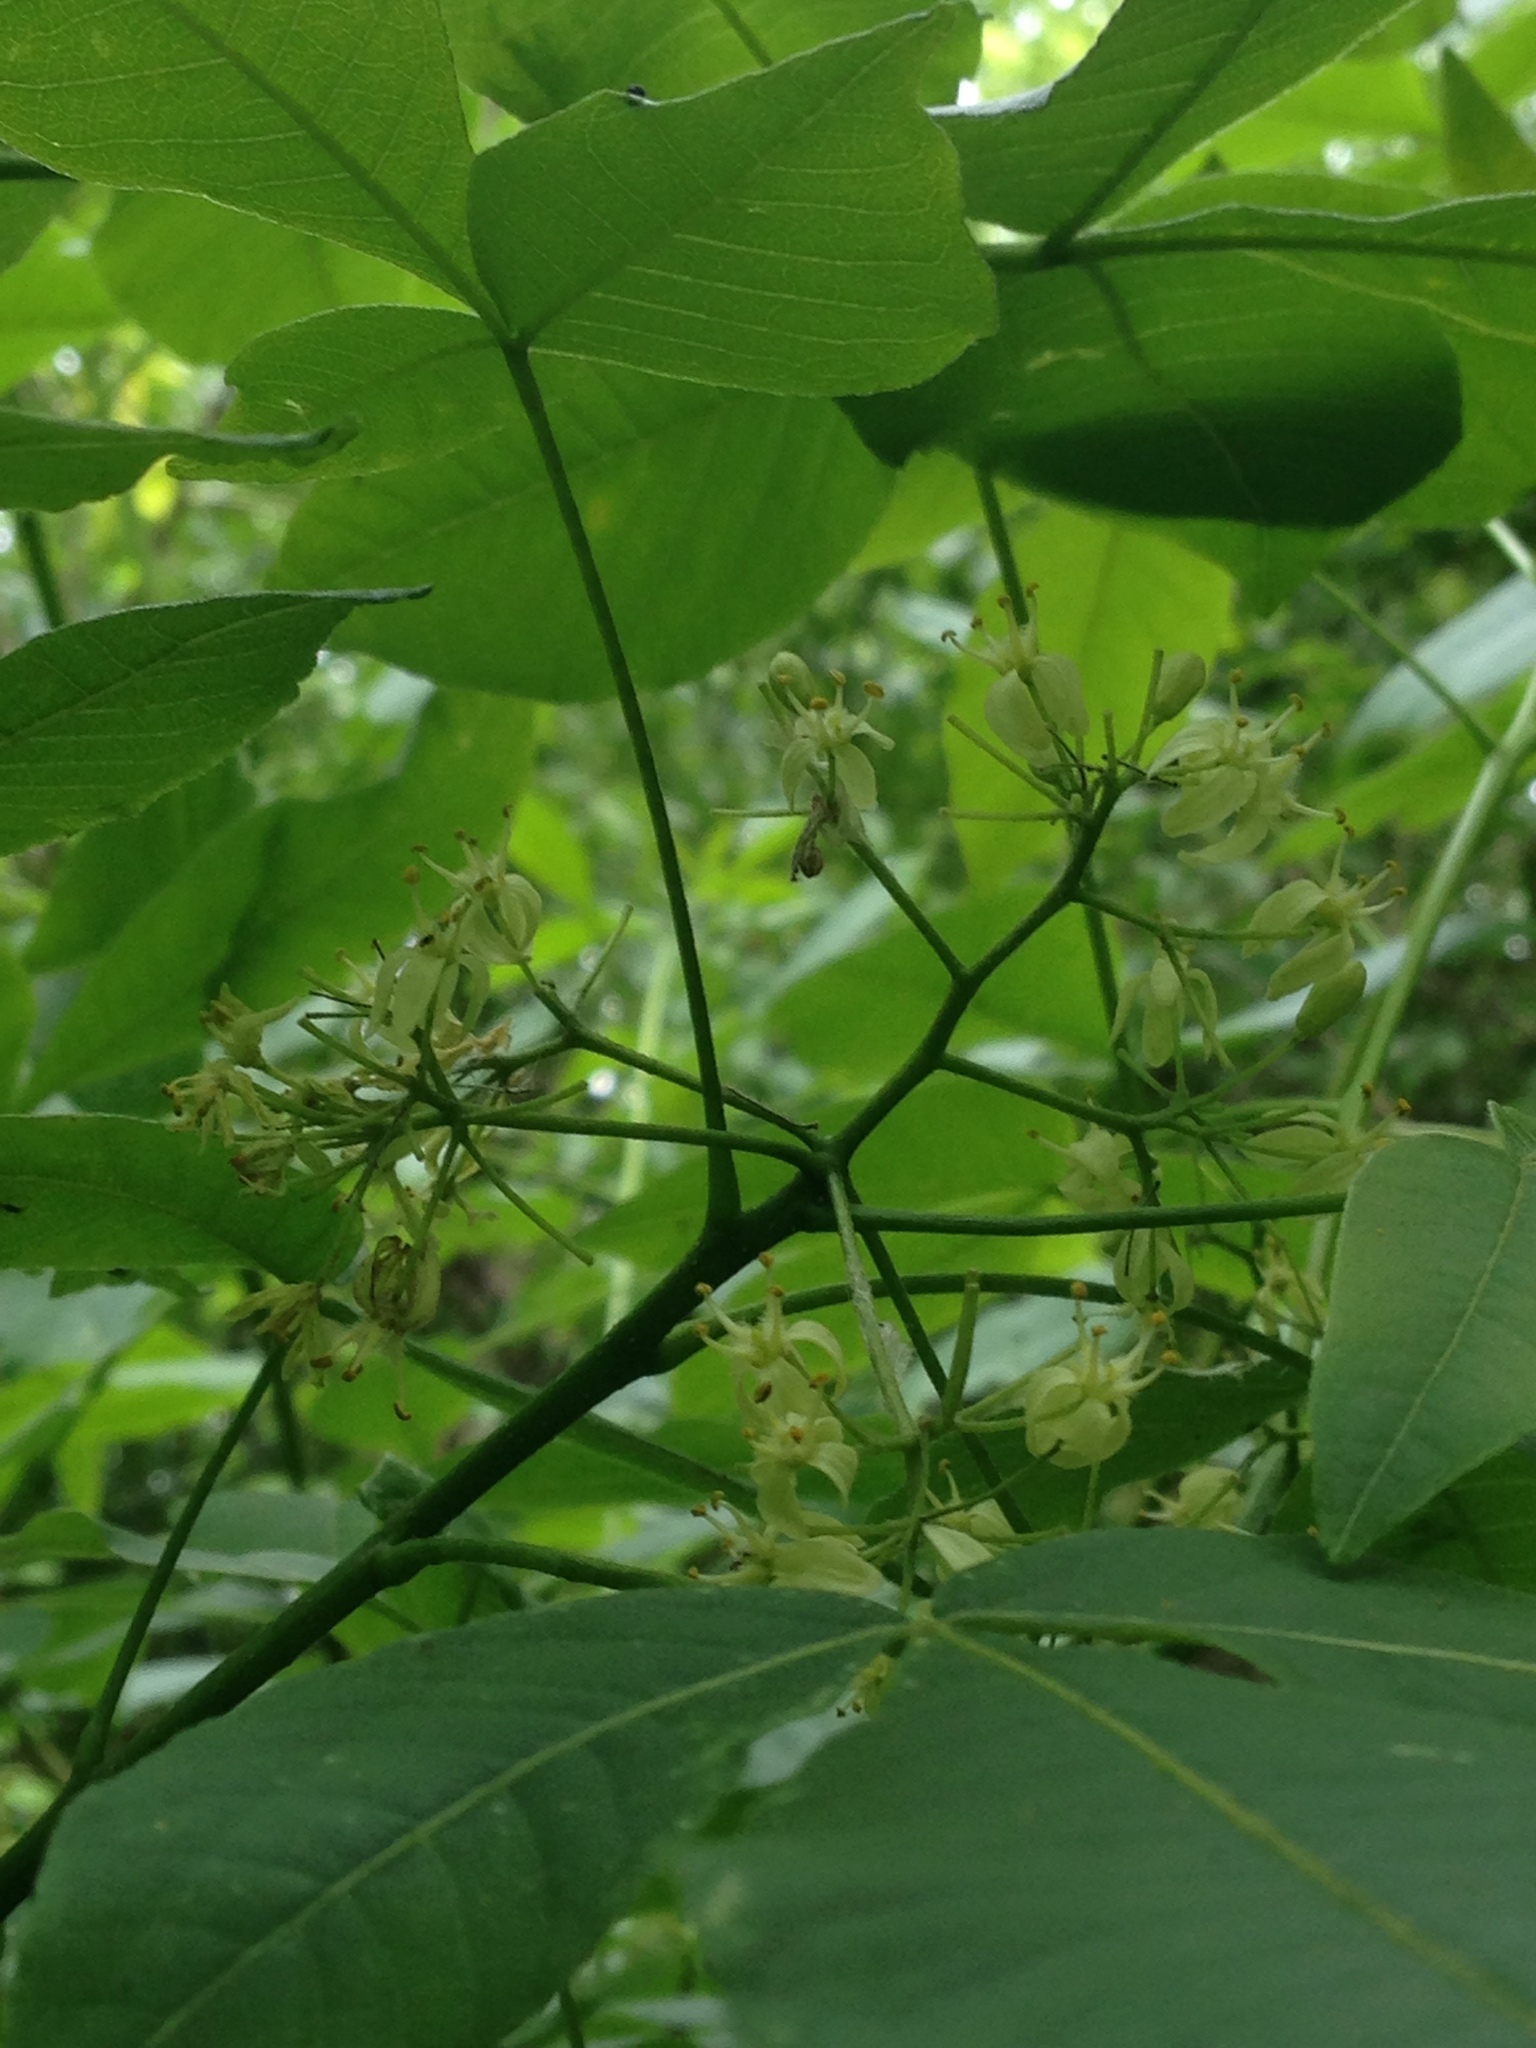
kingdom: Plantae
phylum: Tracheophyta
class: Magnoliopsida
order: Sapindales
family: Rutaceae
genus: Ptelea
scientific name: Ptelea trifoliata
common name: Common hop-tree
